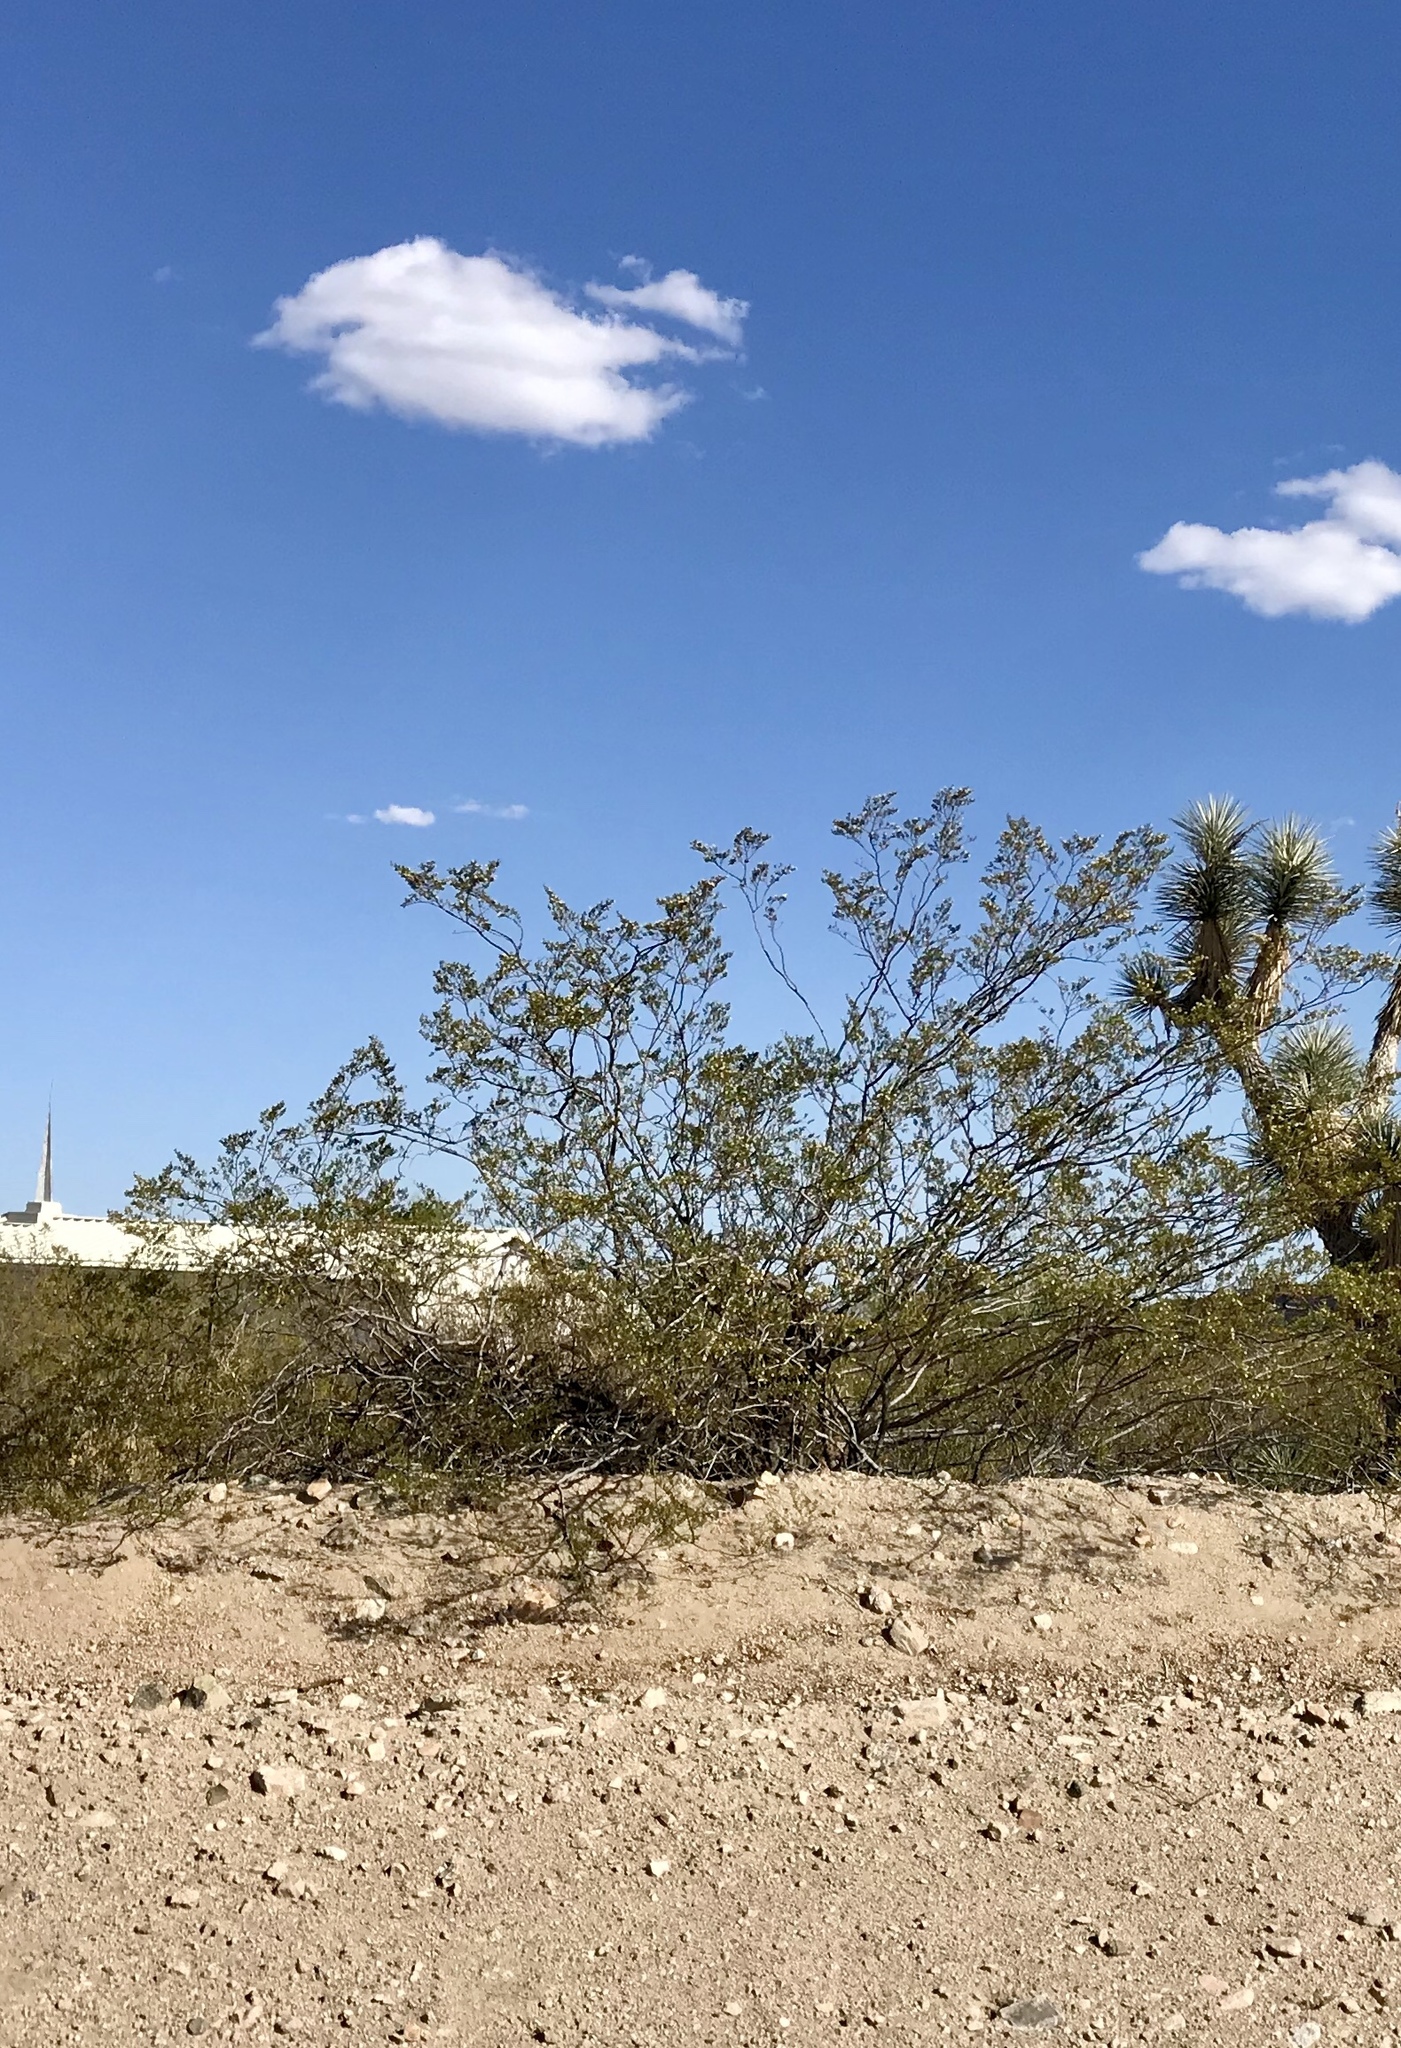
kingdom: Plantae
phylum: Tracheophyta
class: Magnoliopsida
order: Zygophyllales
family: Zygophyllaceae
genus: Larrea
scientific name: Larrea tridentata
